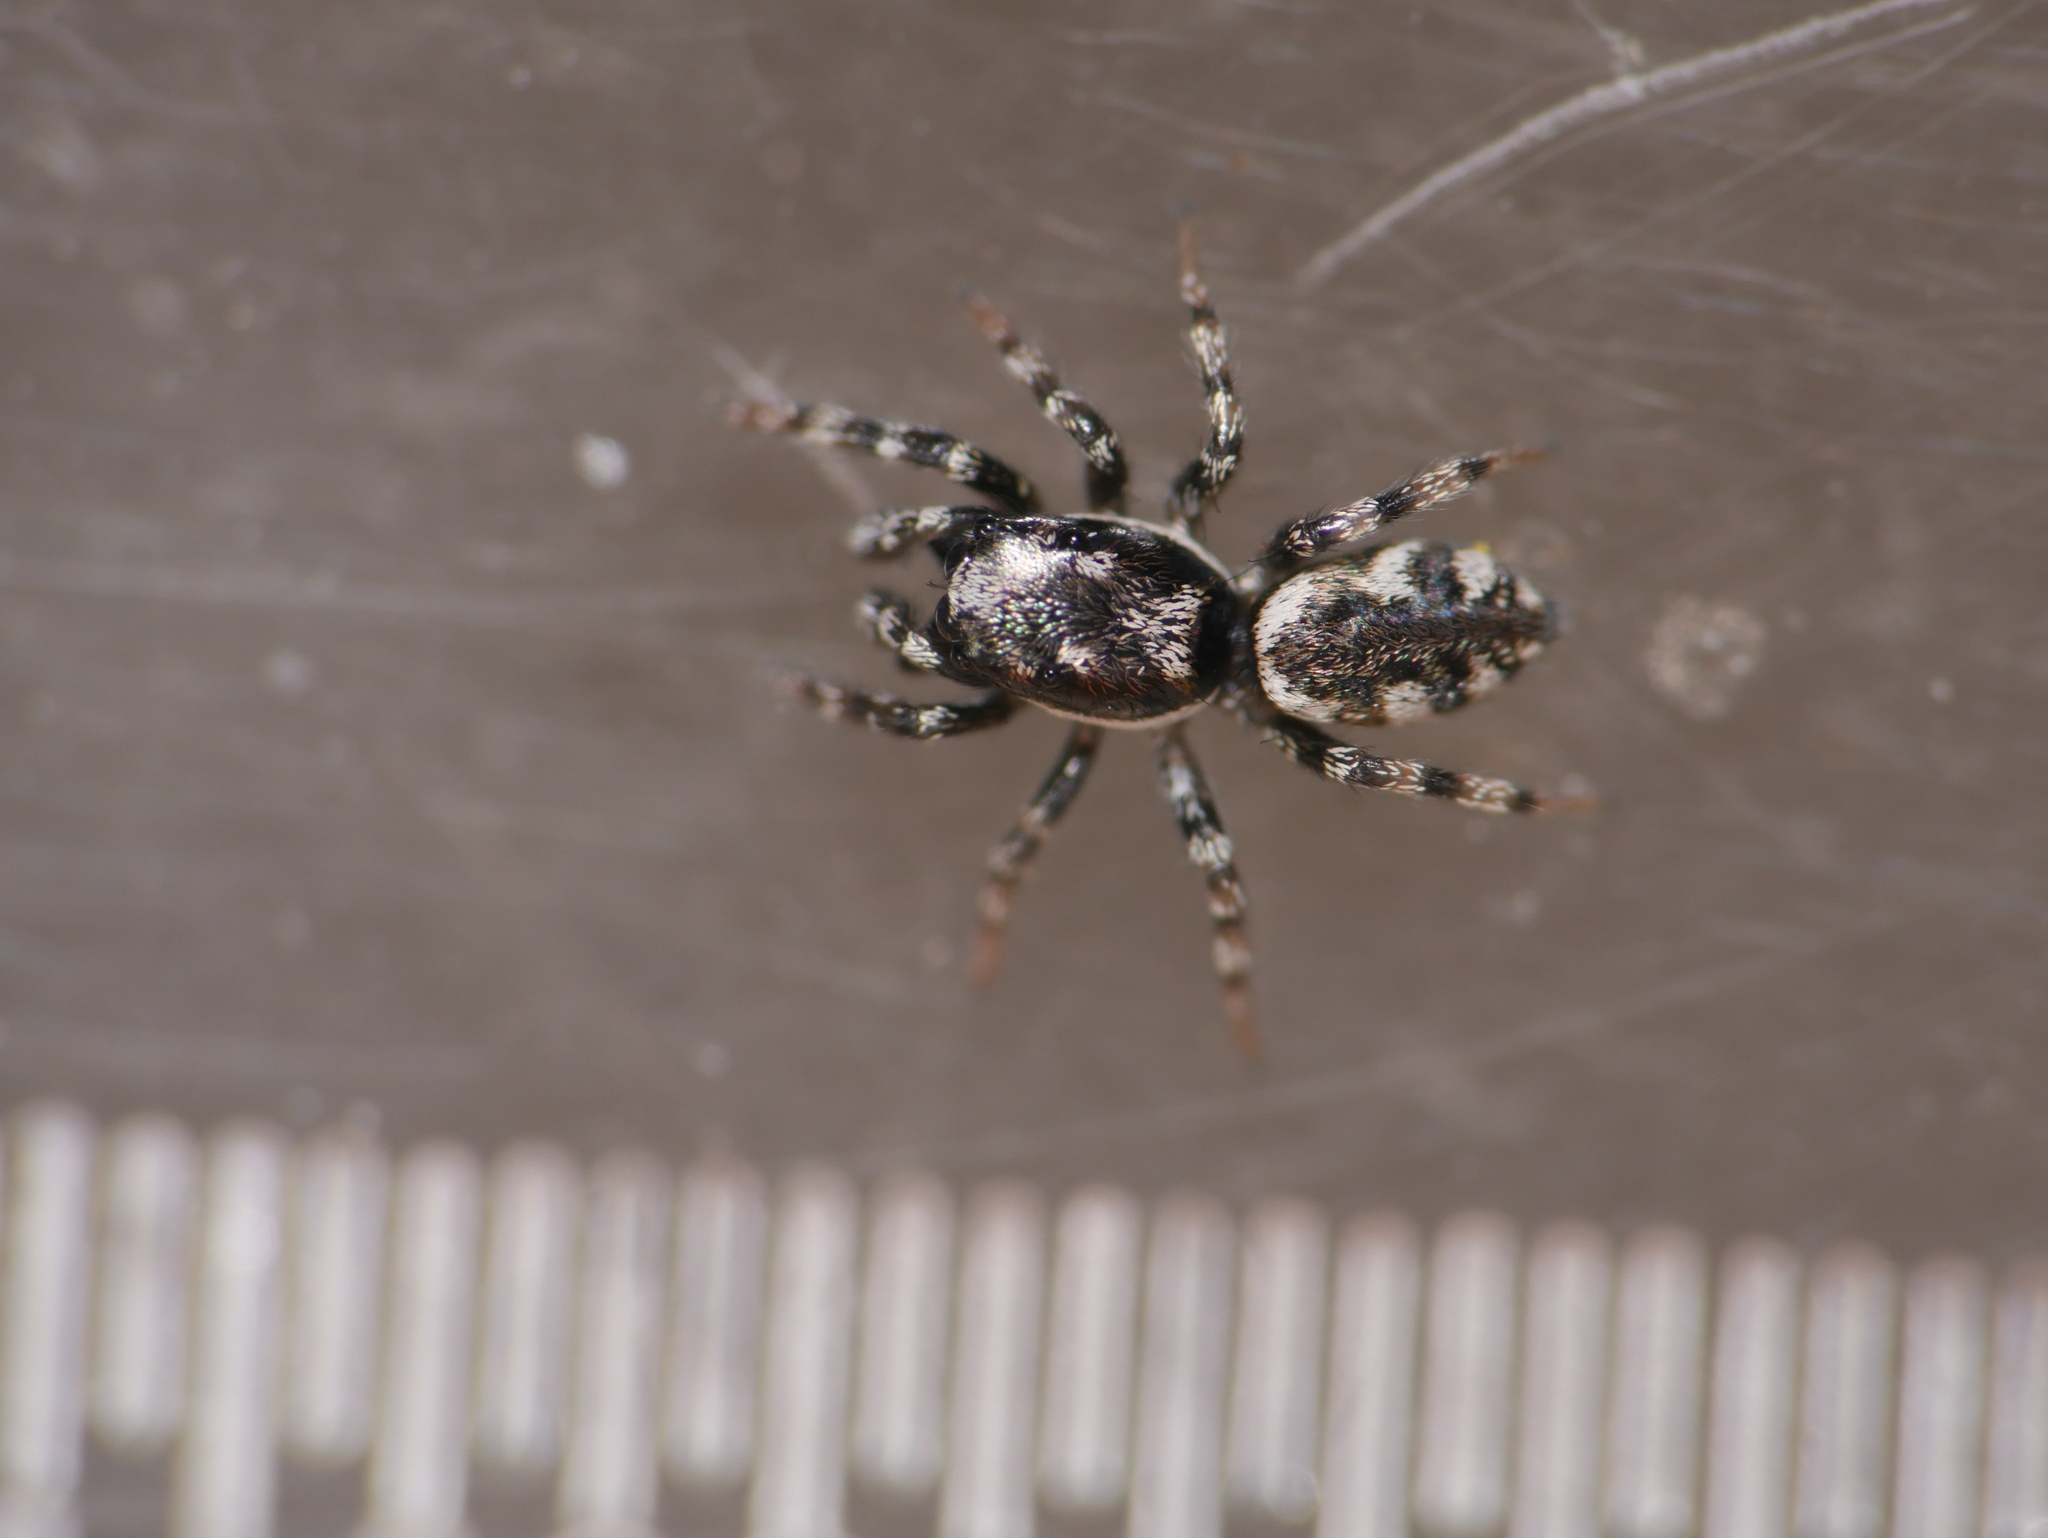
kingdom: Animalia
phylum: Arthropoda
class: Arachnida
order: Araneae
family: Salticidae
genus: Salticus
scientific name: Salticus zebraneus
